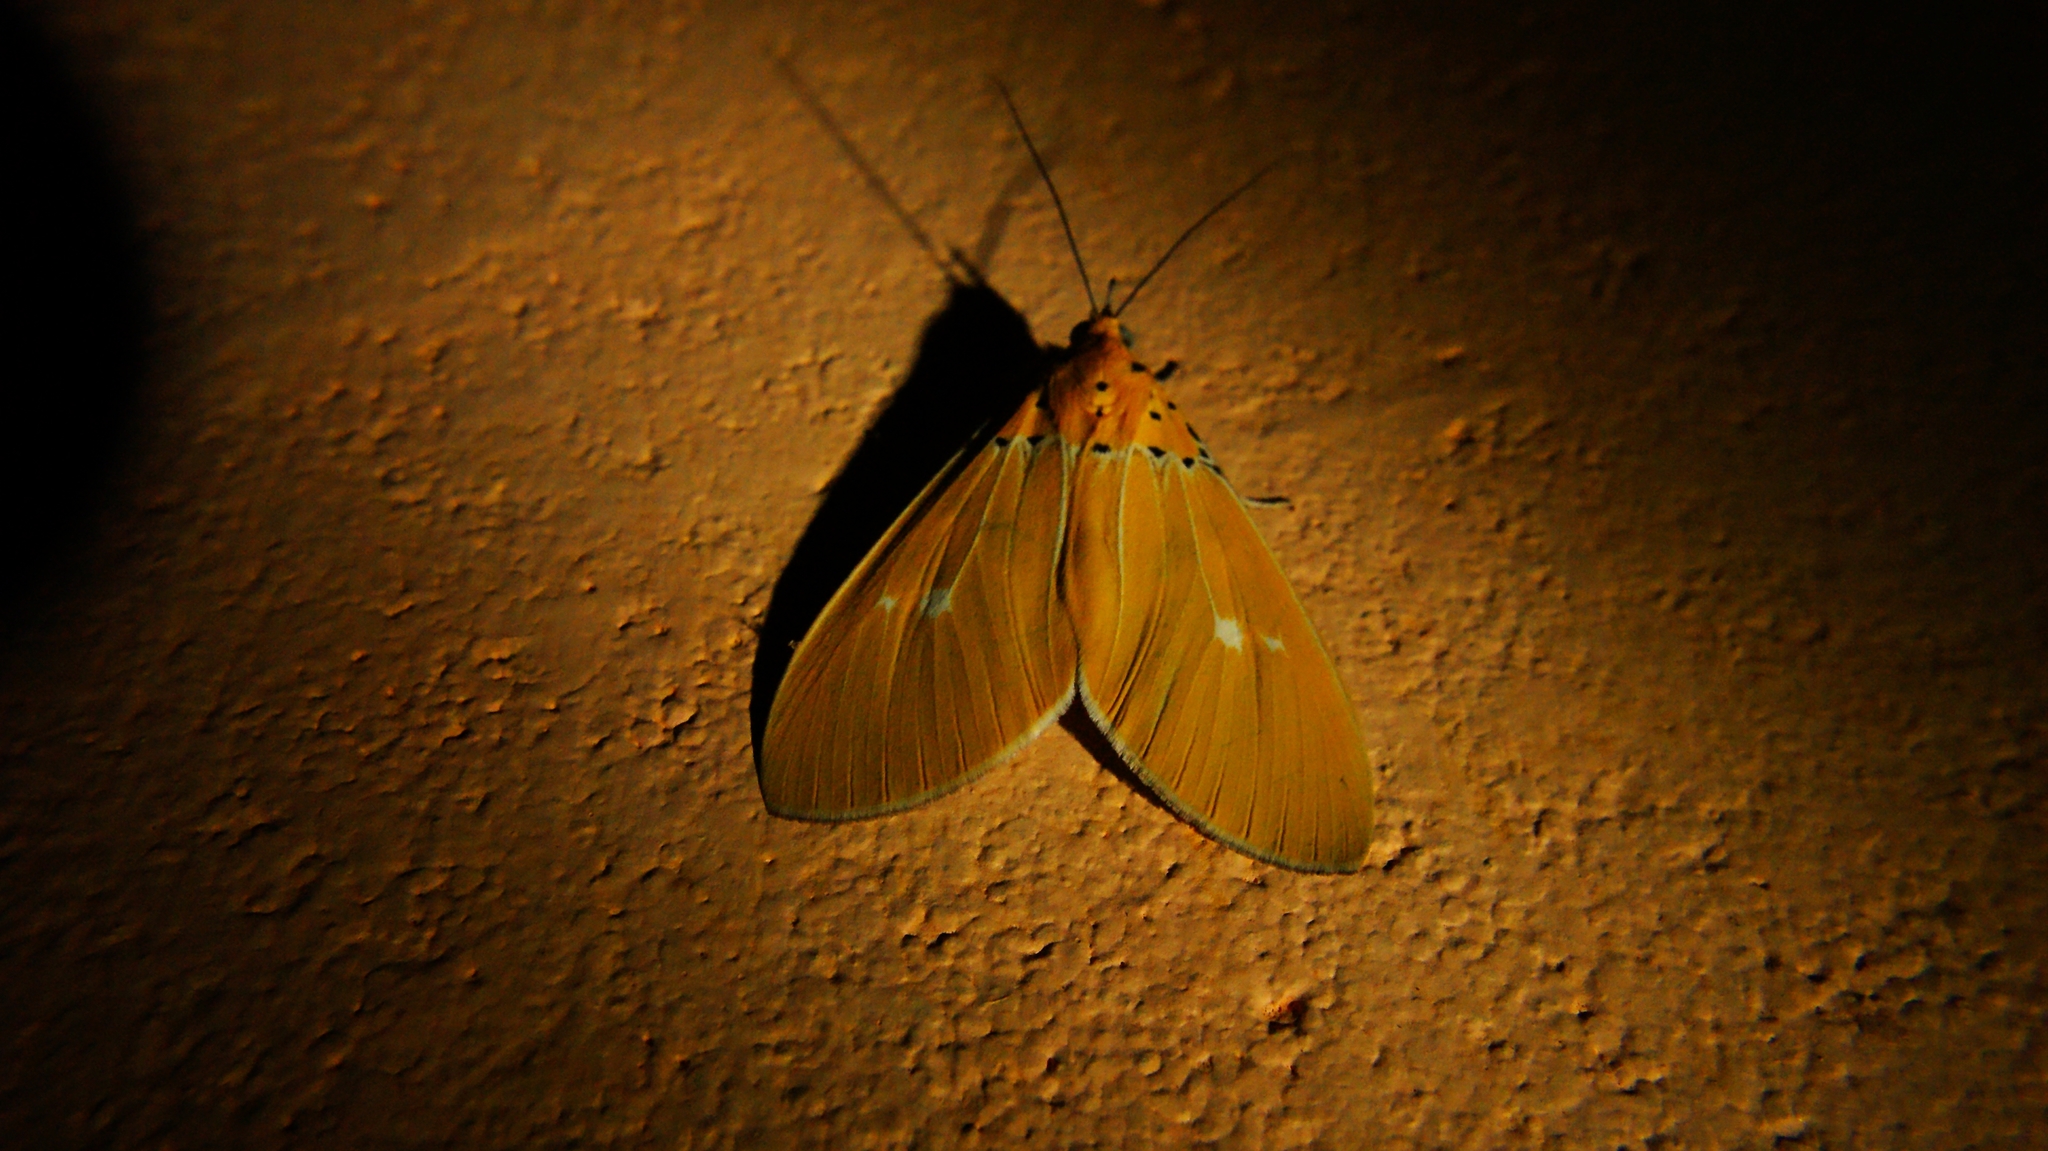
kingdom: Animalia
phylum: Arthropoda
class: Insecta
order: Lepidoptera
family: Erebidae
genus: Asota
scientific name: Asota sericea
